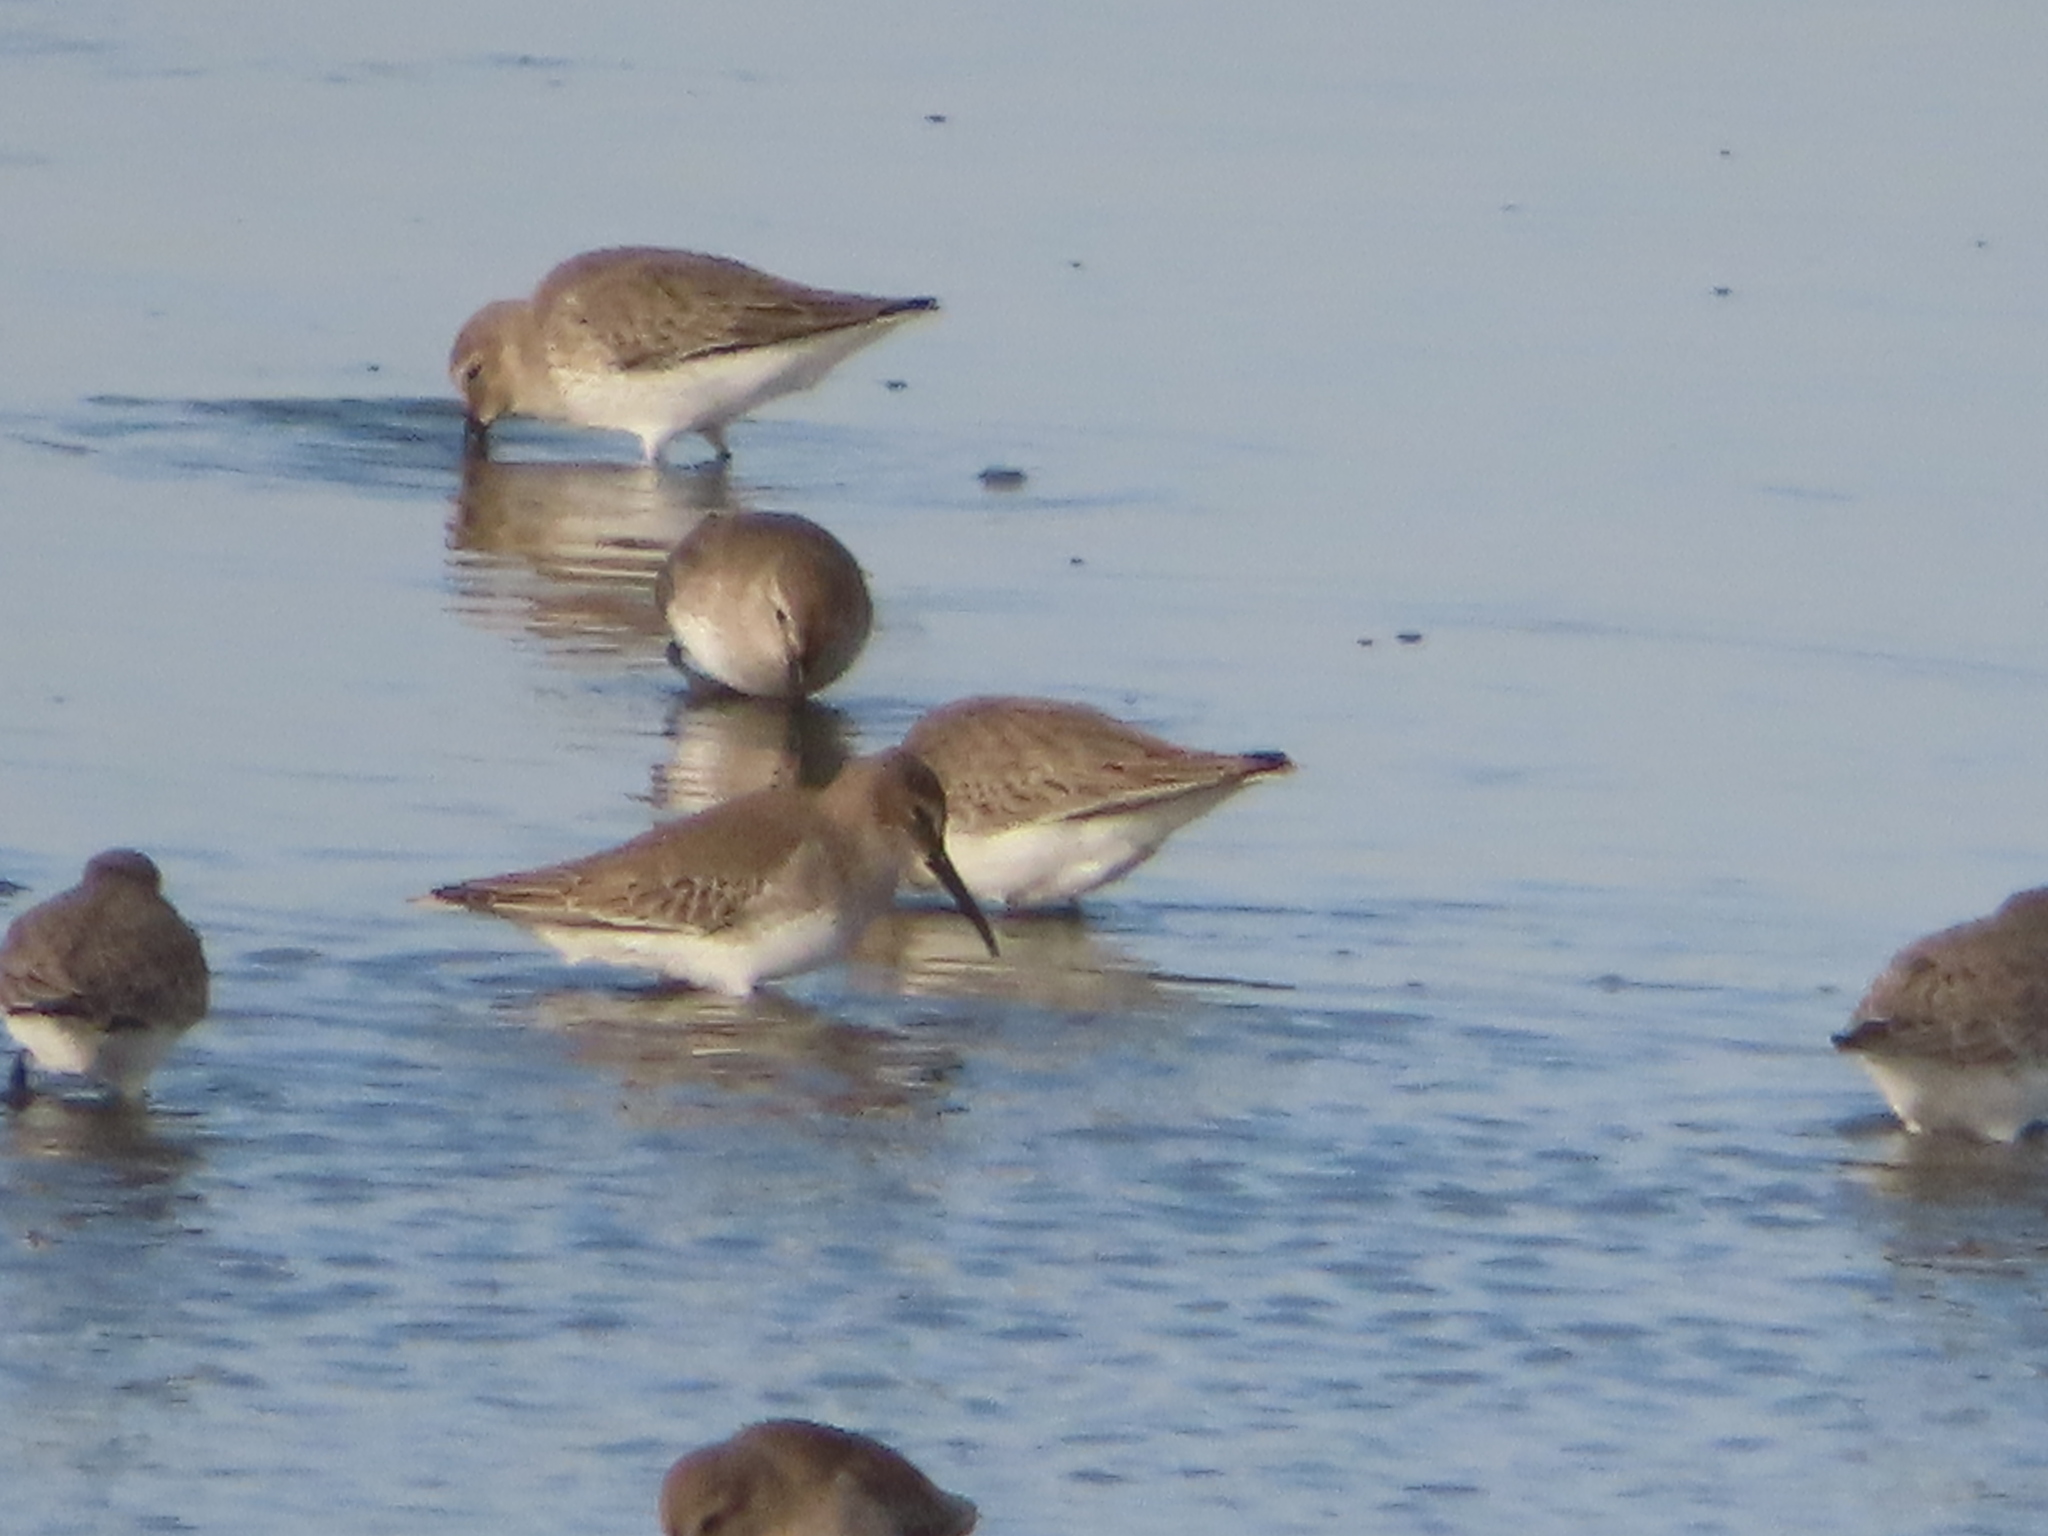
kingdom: Animalia
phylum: Chordata
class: Aves
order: Charadriiformes
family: Scolopacidae
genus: Calidris
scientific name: Calidris alpina
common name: Dunlin
